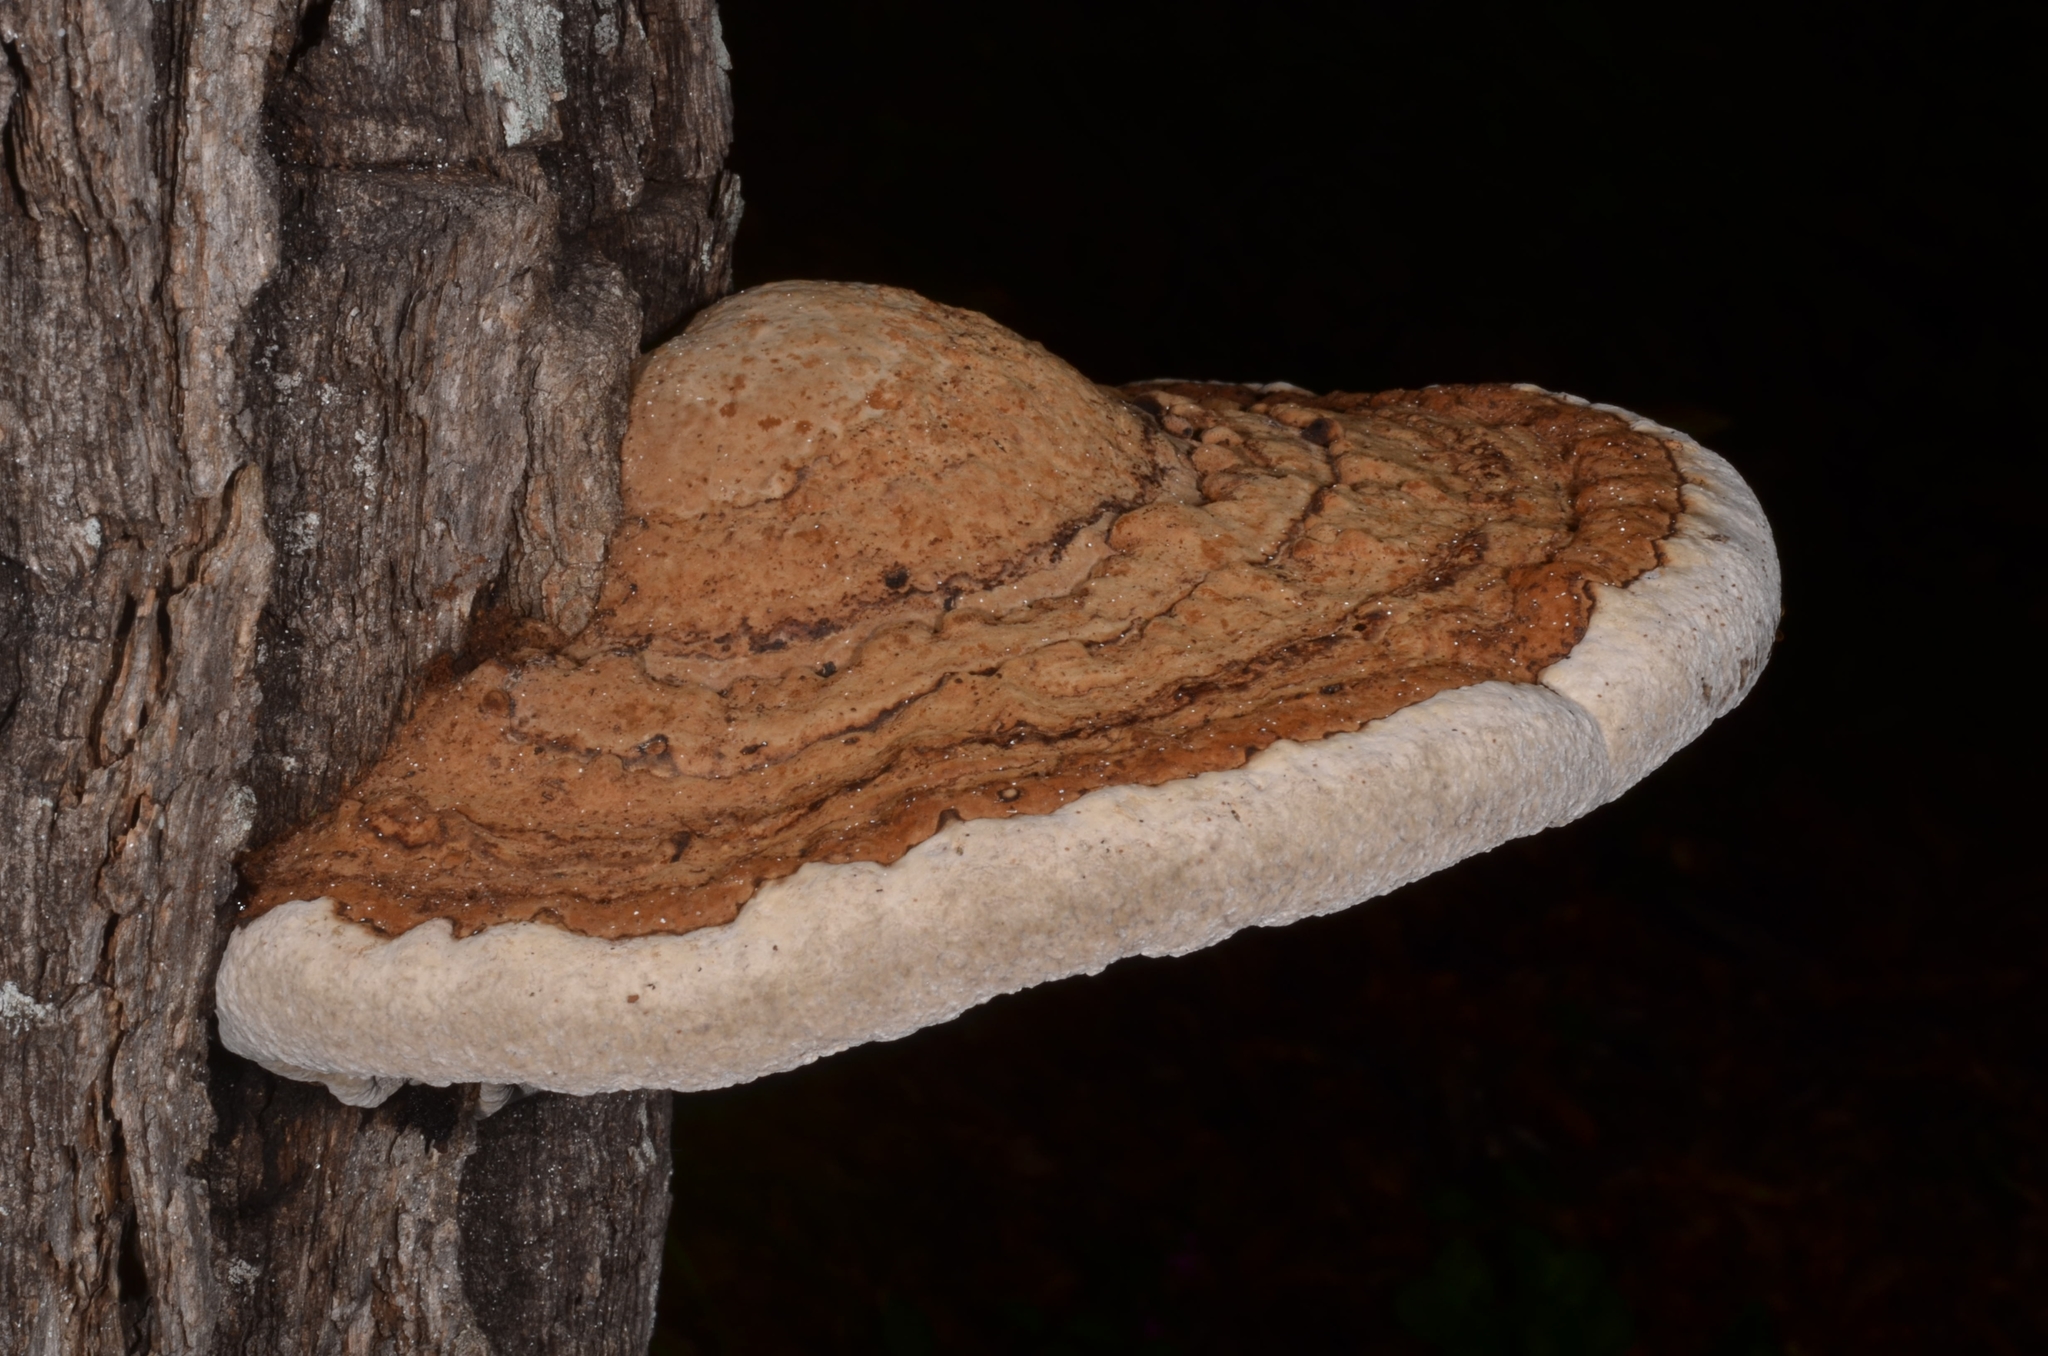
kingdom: Fungi
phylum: Basidiomycota
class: Agaricomycetes
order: Polyporales
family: Polyporaceae
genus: Fomes
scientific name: Fomes fomentarius
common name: Hoof fungus
